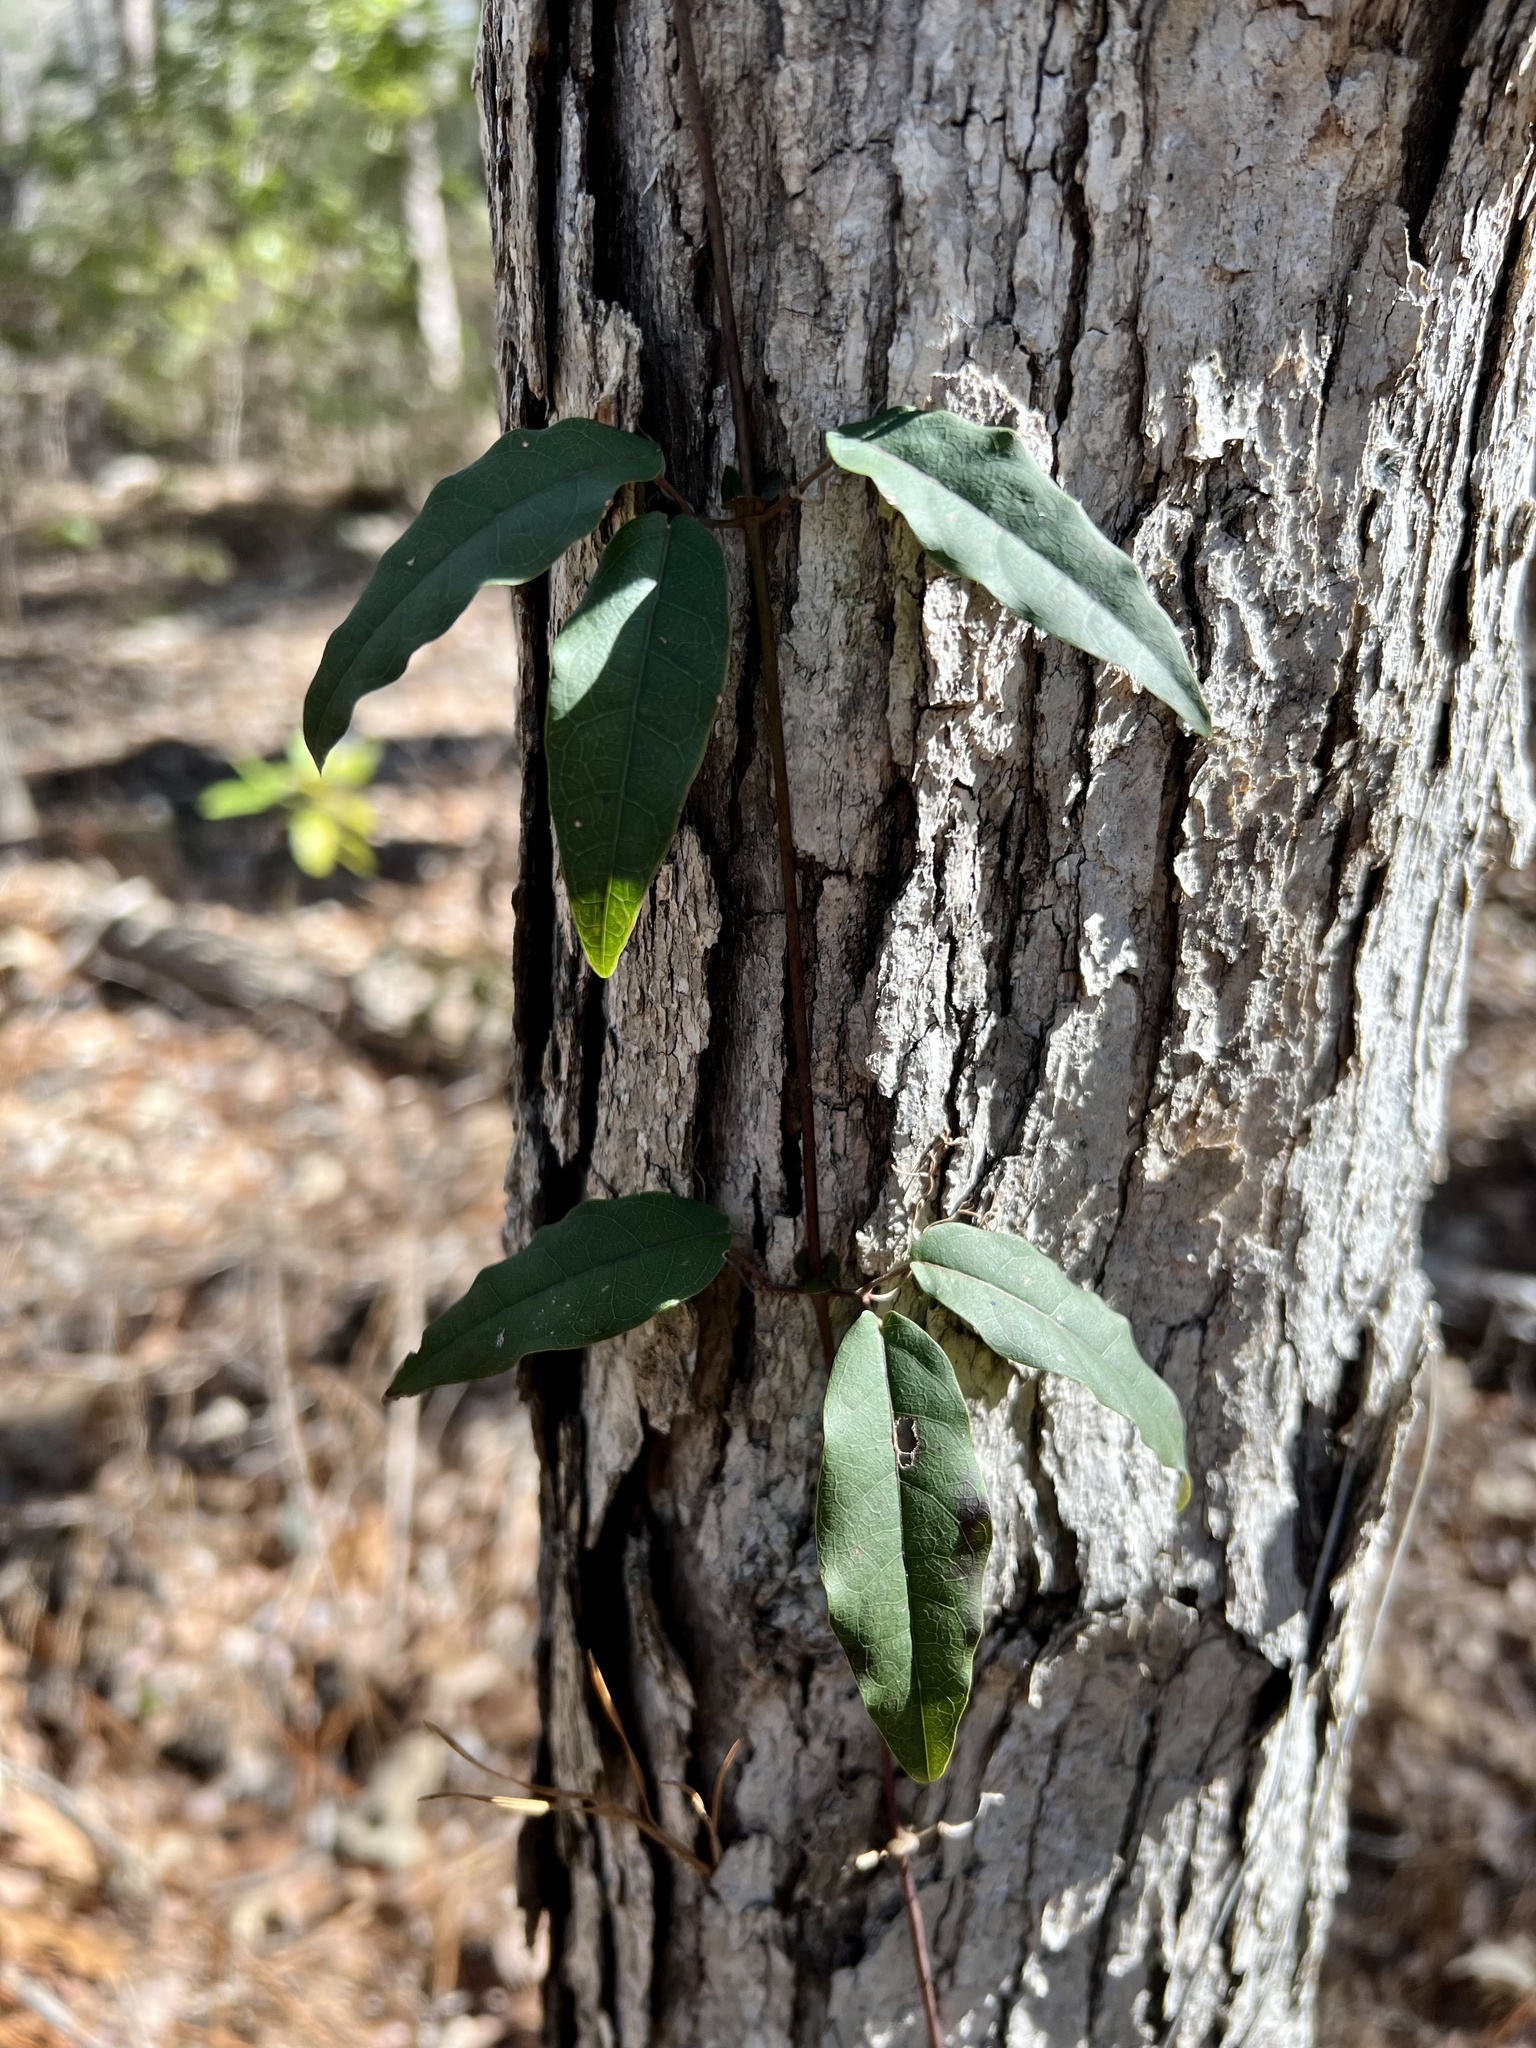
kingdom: Plantae
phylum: Tracheophyta
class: Magnoliopsida
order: Lamiales
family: Bignoniaceae
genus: Bignonia
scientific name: Bignonia capreolata
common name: Crossvine
